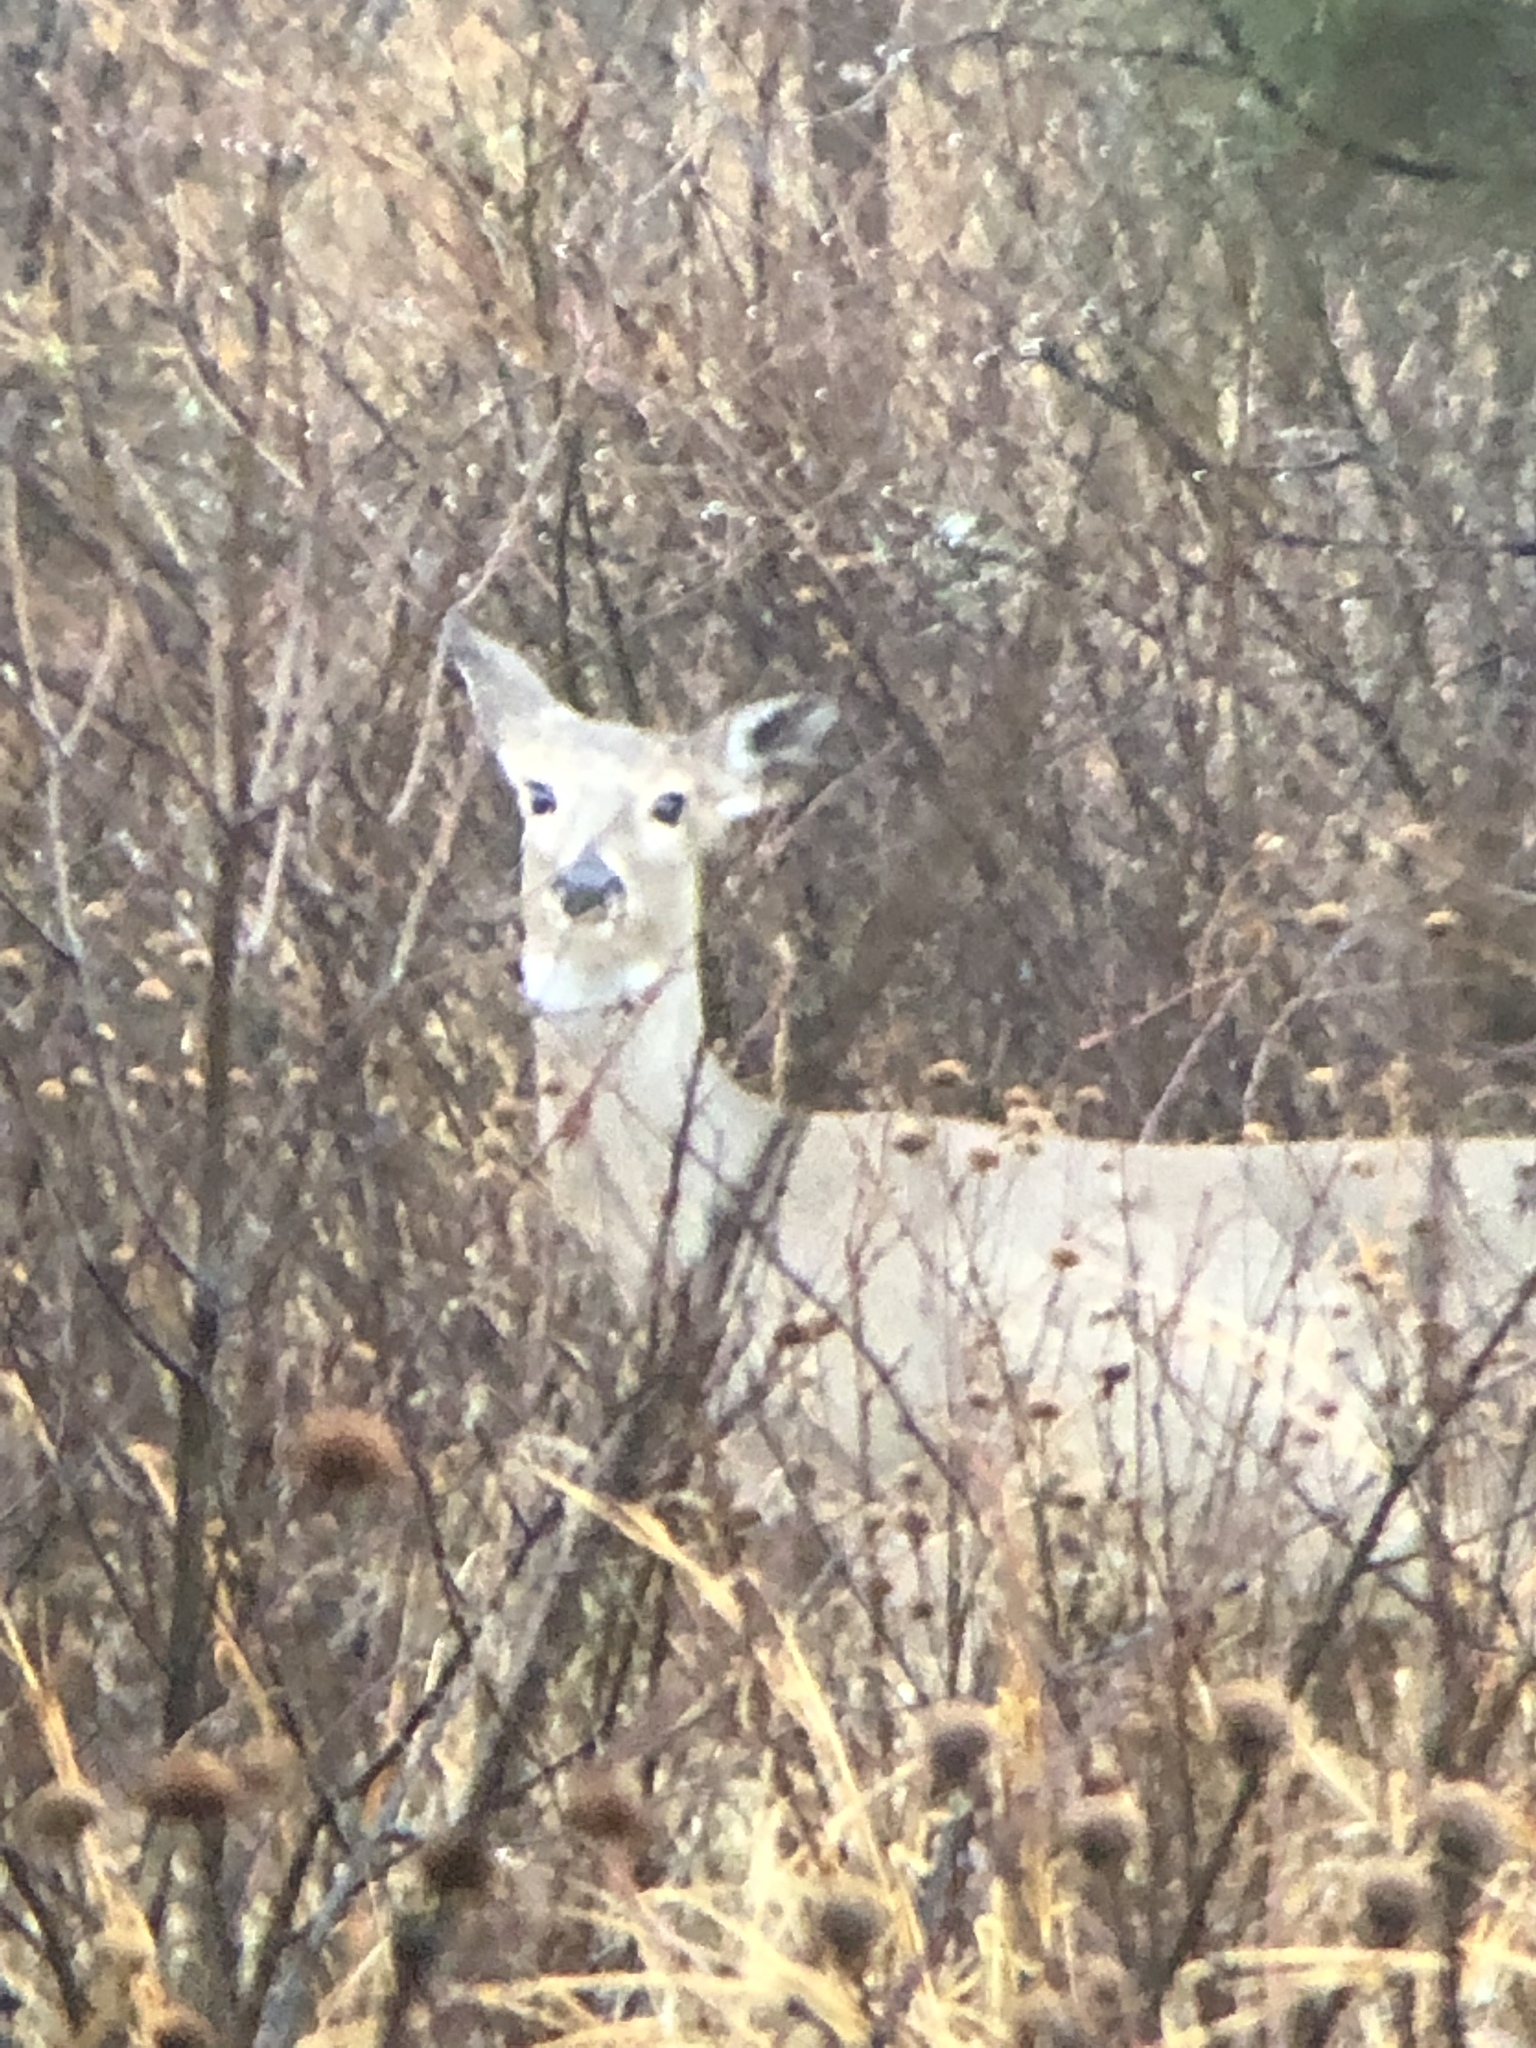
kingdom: Animalia
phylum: Chordata
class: Mammalia
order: Artiodactyla
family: Cervidae
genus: Odocoileus
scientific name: Odocoileus virginianus
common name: White-tailed deer
